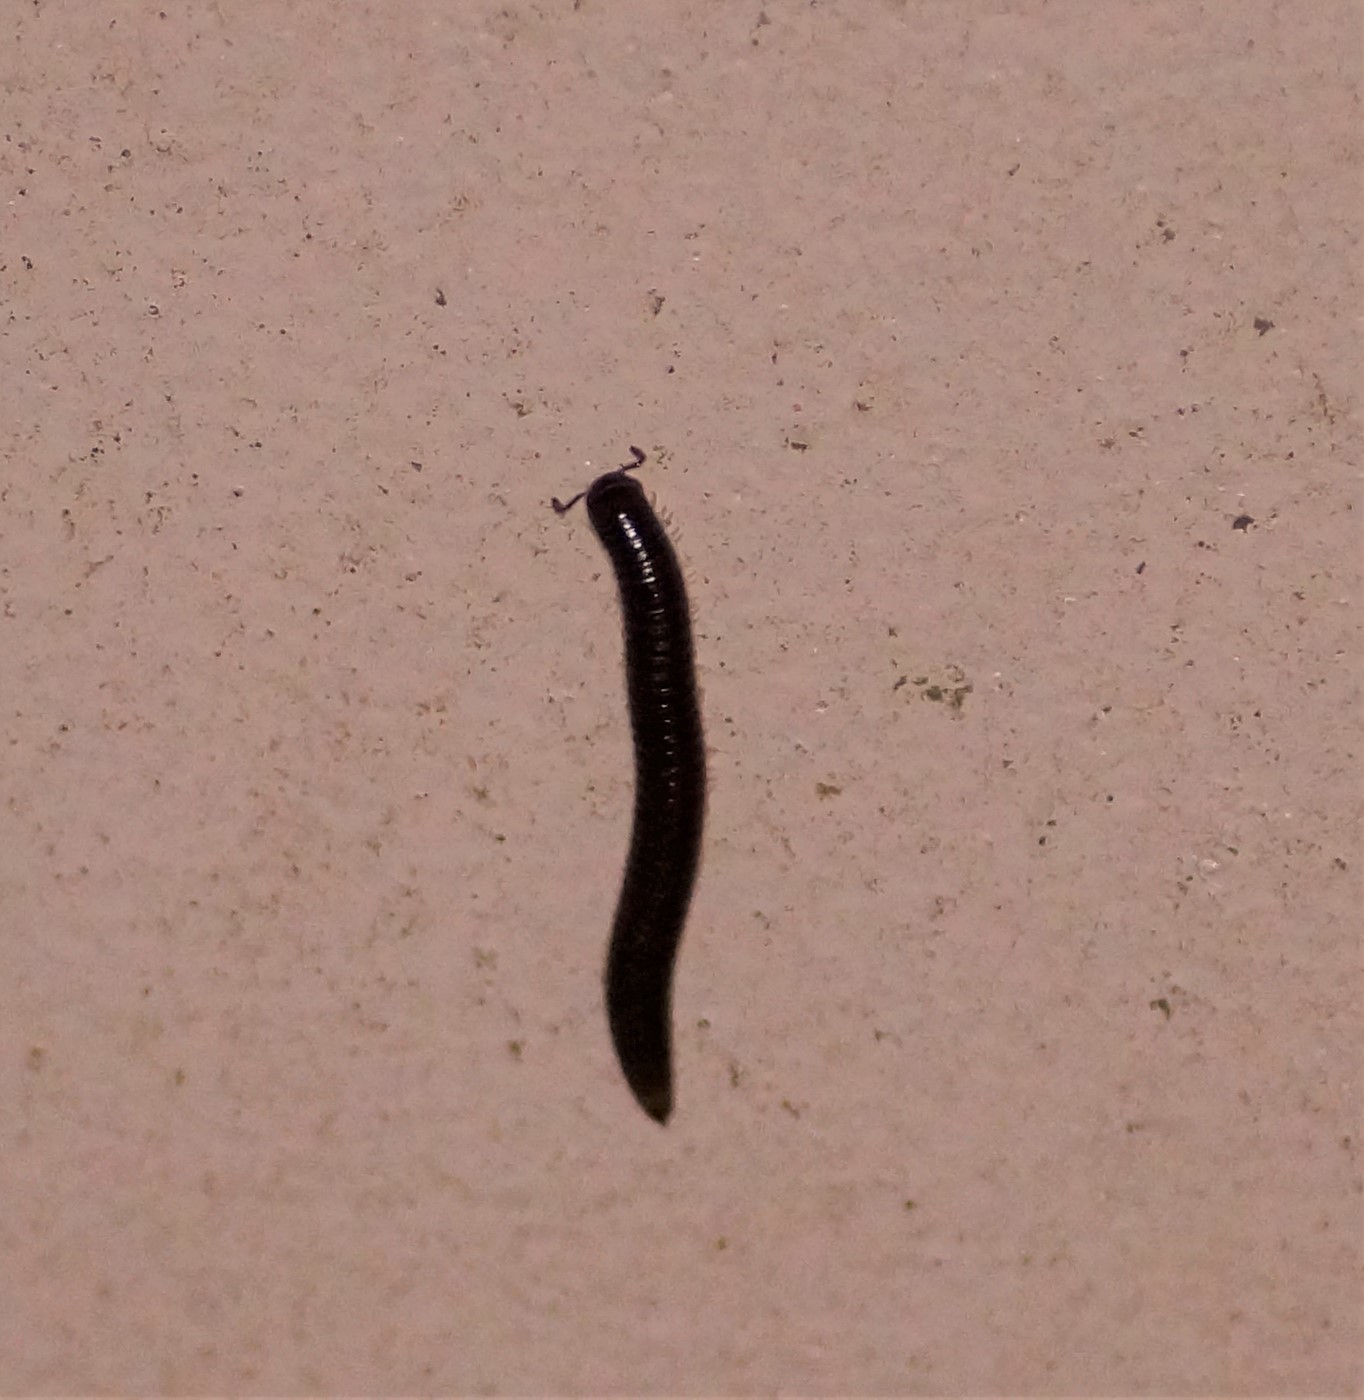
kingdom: Animalia
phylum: Arthropoda
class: Diplopoda
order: Julida
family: Julidae
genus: Ommatoiulus
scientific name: Ommatoiulus moreleti
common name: Portuguese millipede
